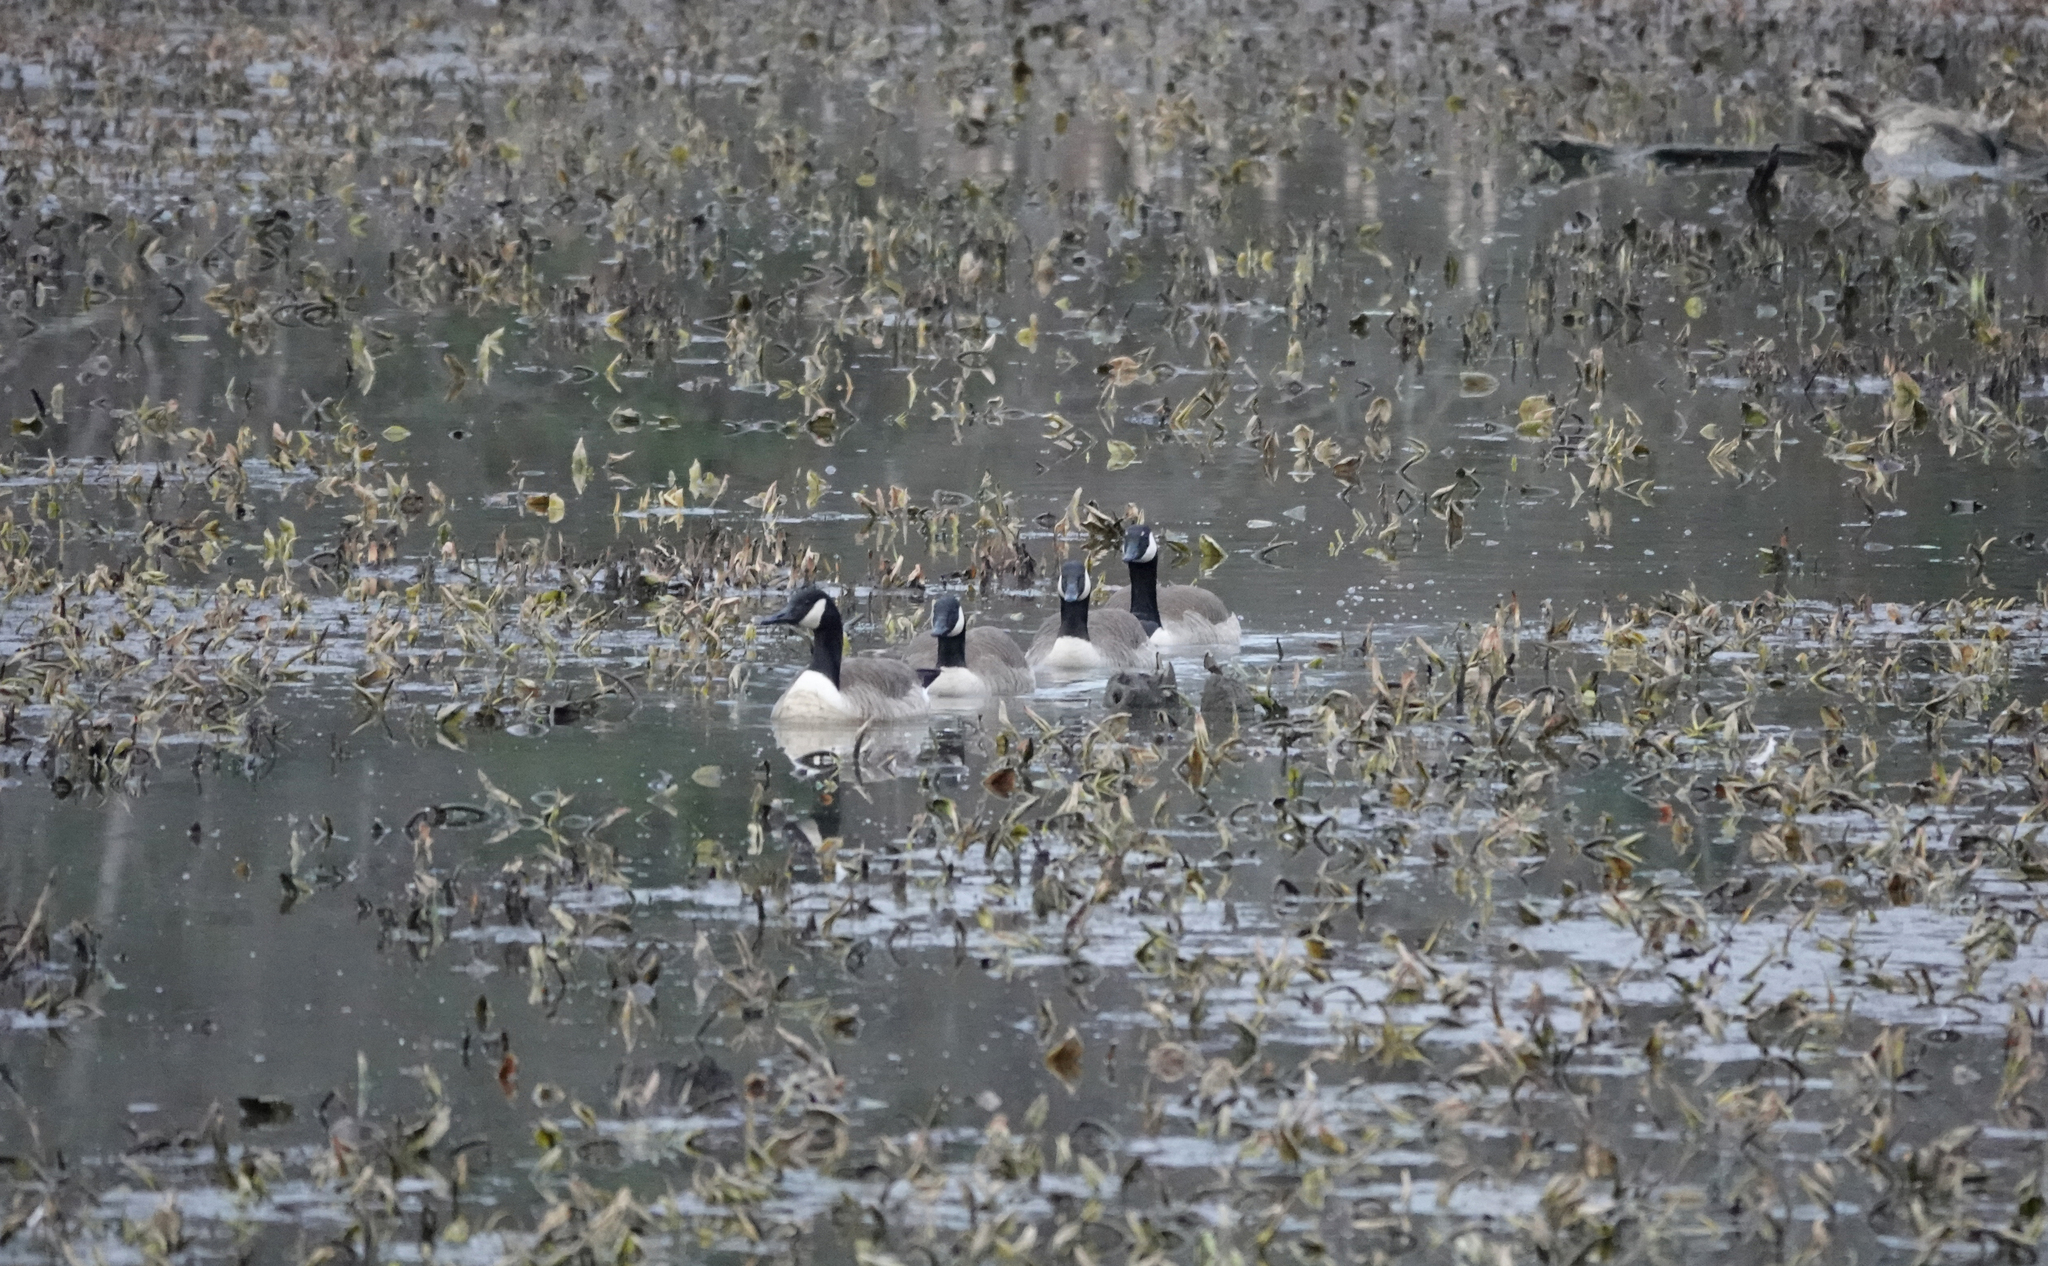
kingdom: Animalia
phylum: Chordata
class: Aves
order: Anseriformes
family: Anatidae
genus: Branta
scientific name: Branta canadensis
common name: Canada goose
